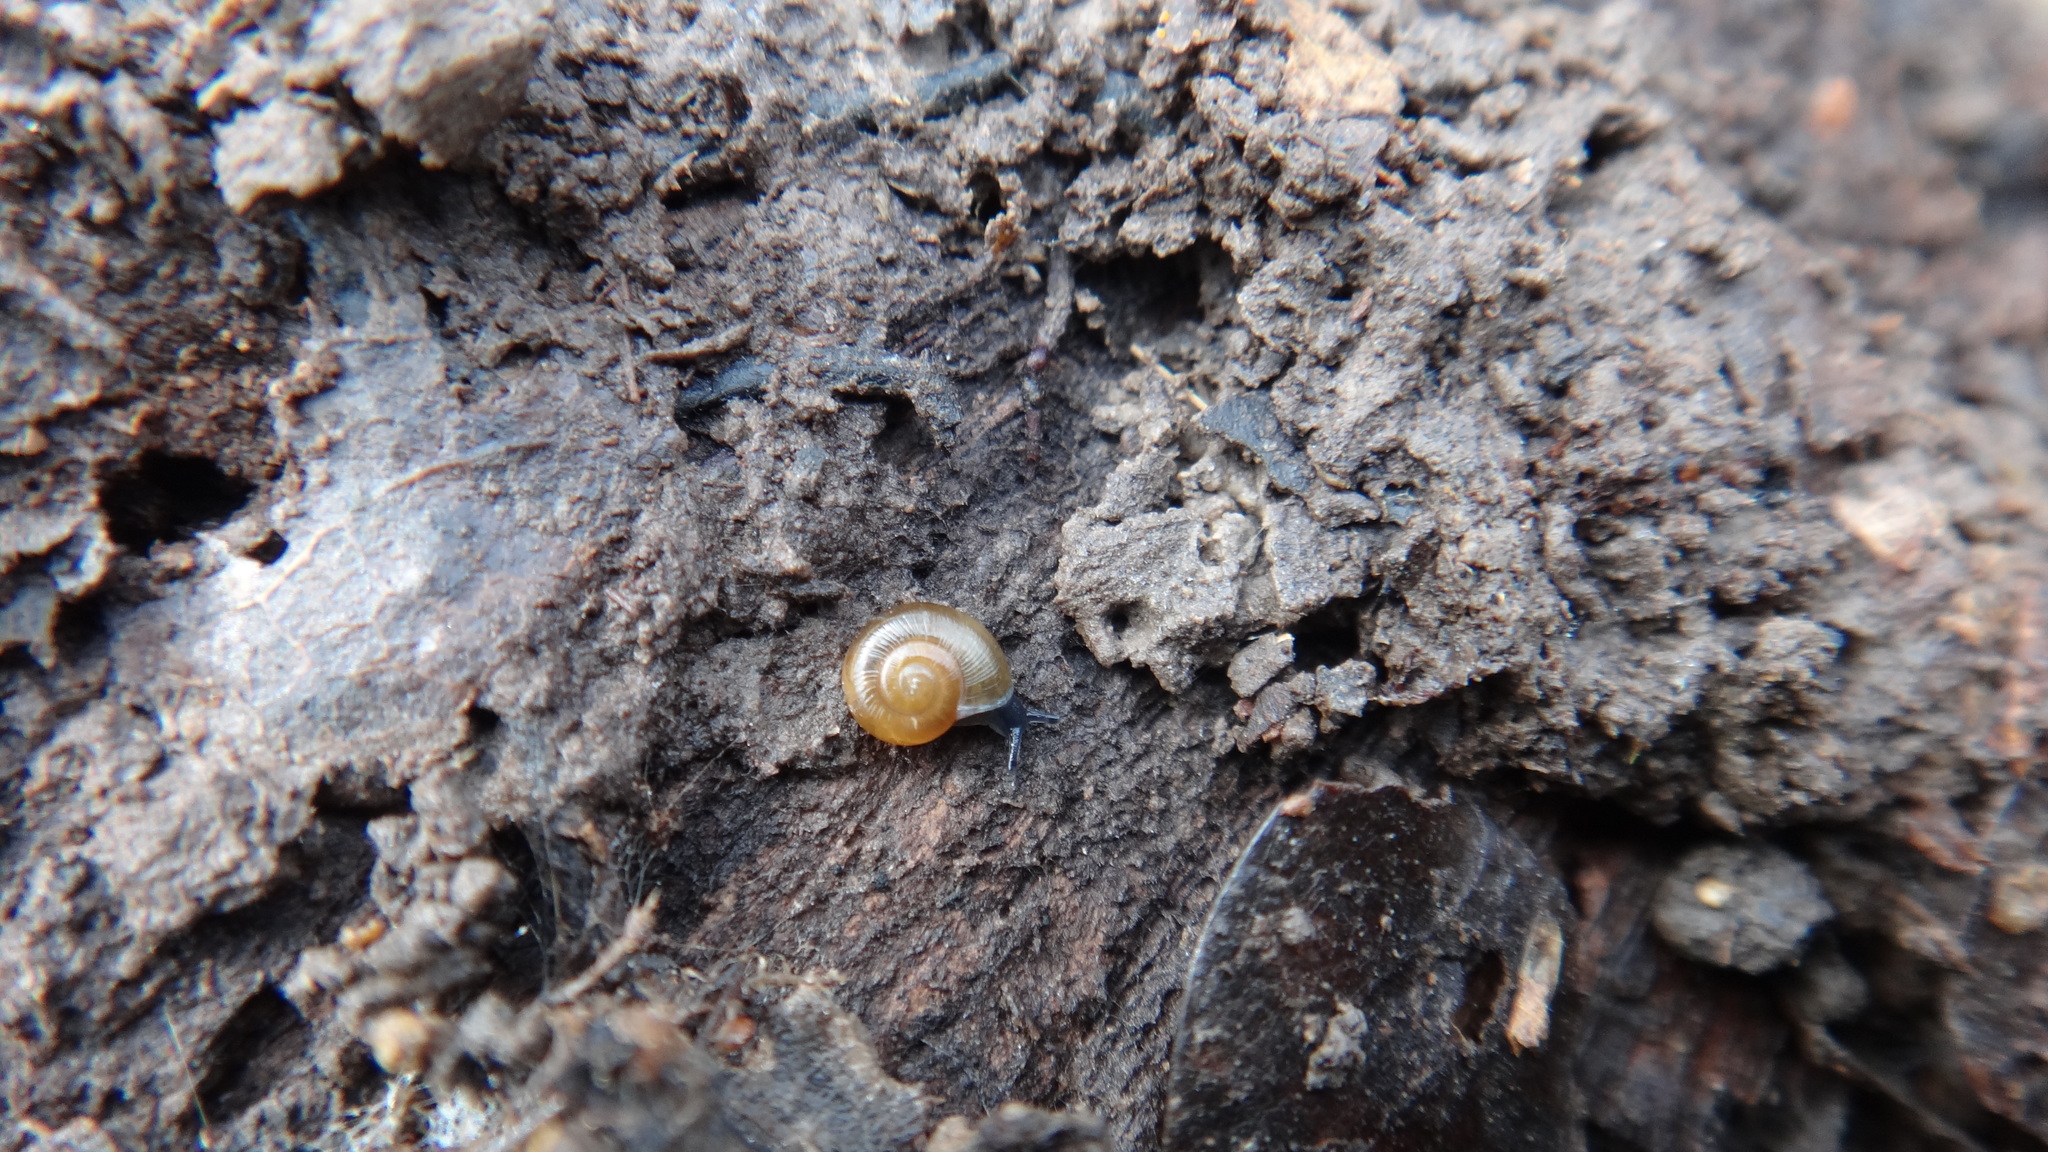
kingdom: Animalia
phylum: Mollusca
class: Gastropoda
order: Stylommatophora
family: Gastrodontidae
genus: Perpolita
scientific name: Perpolita hammonis
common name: Rayed glass snail
